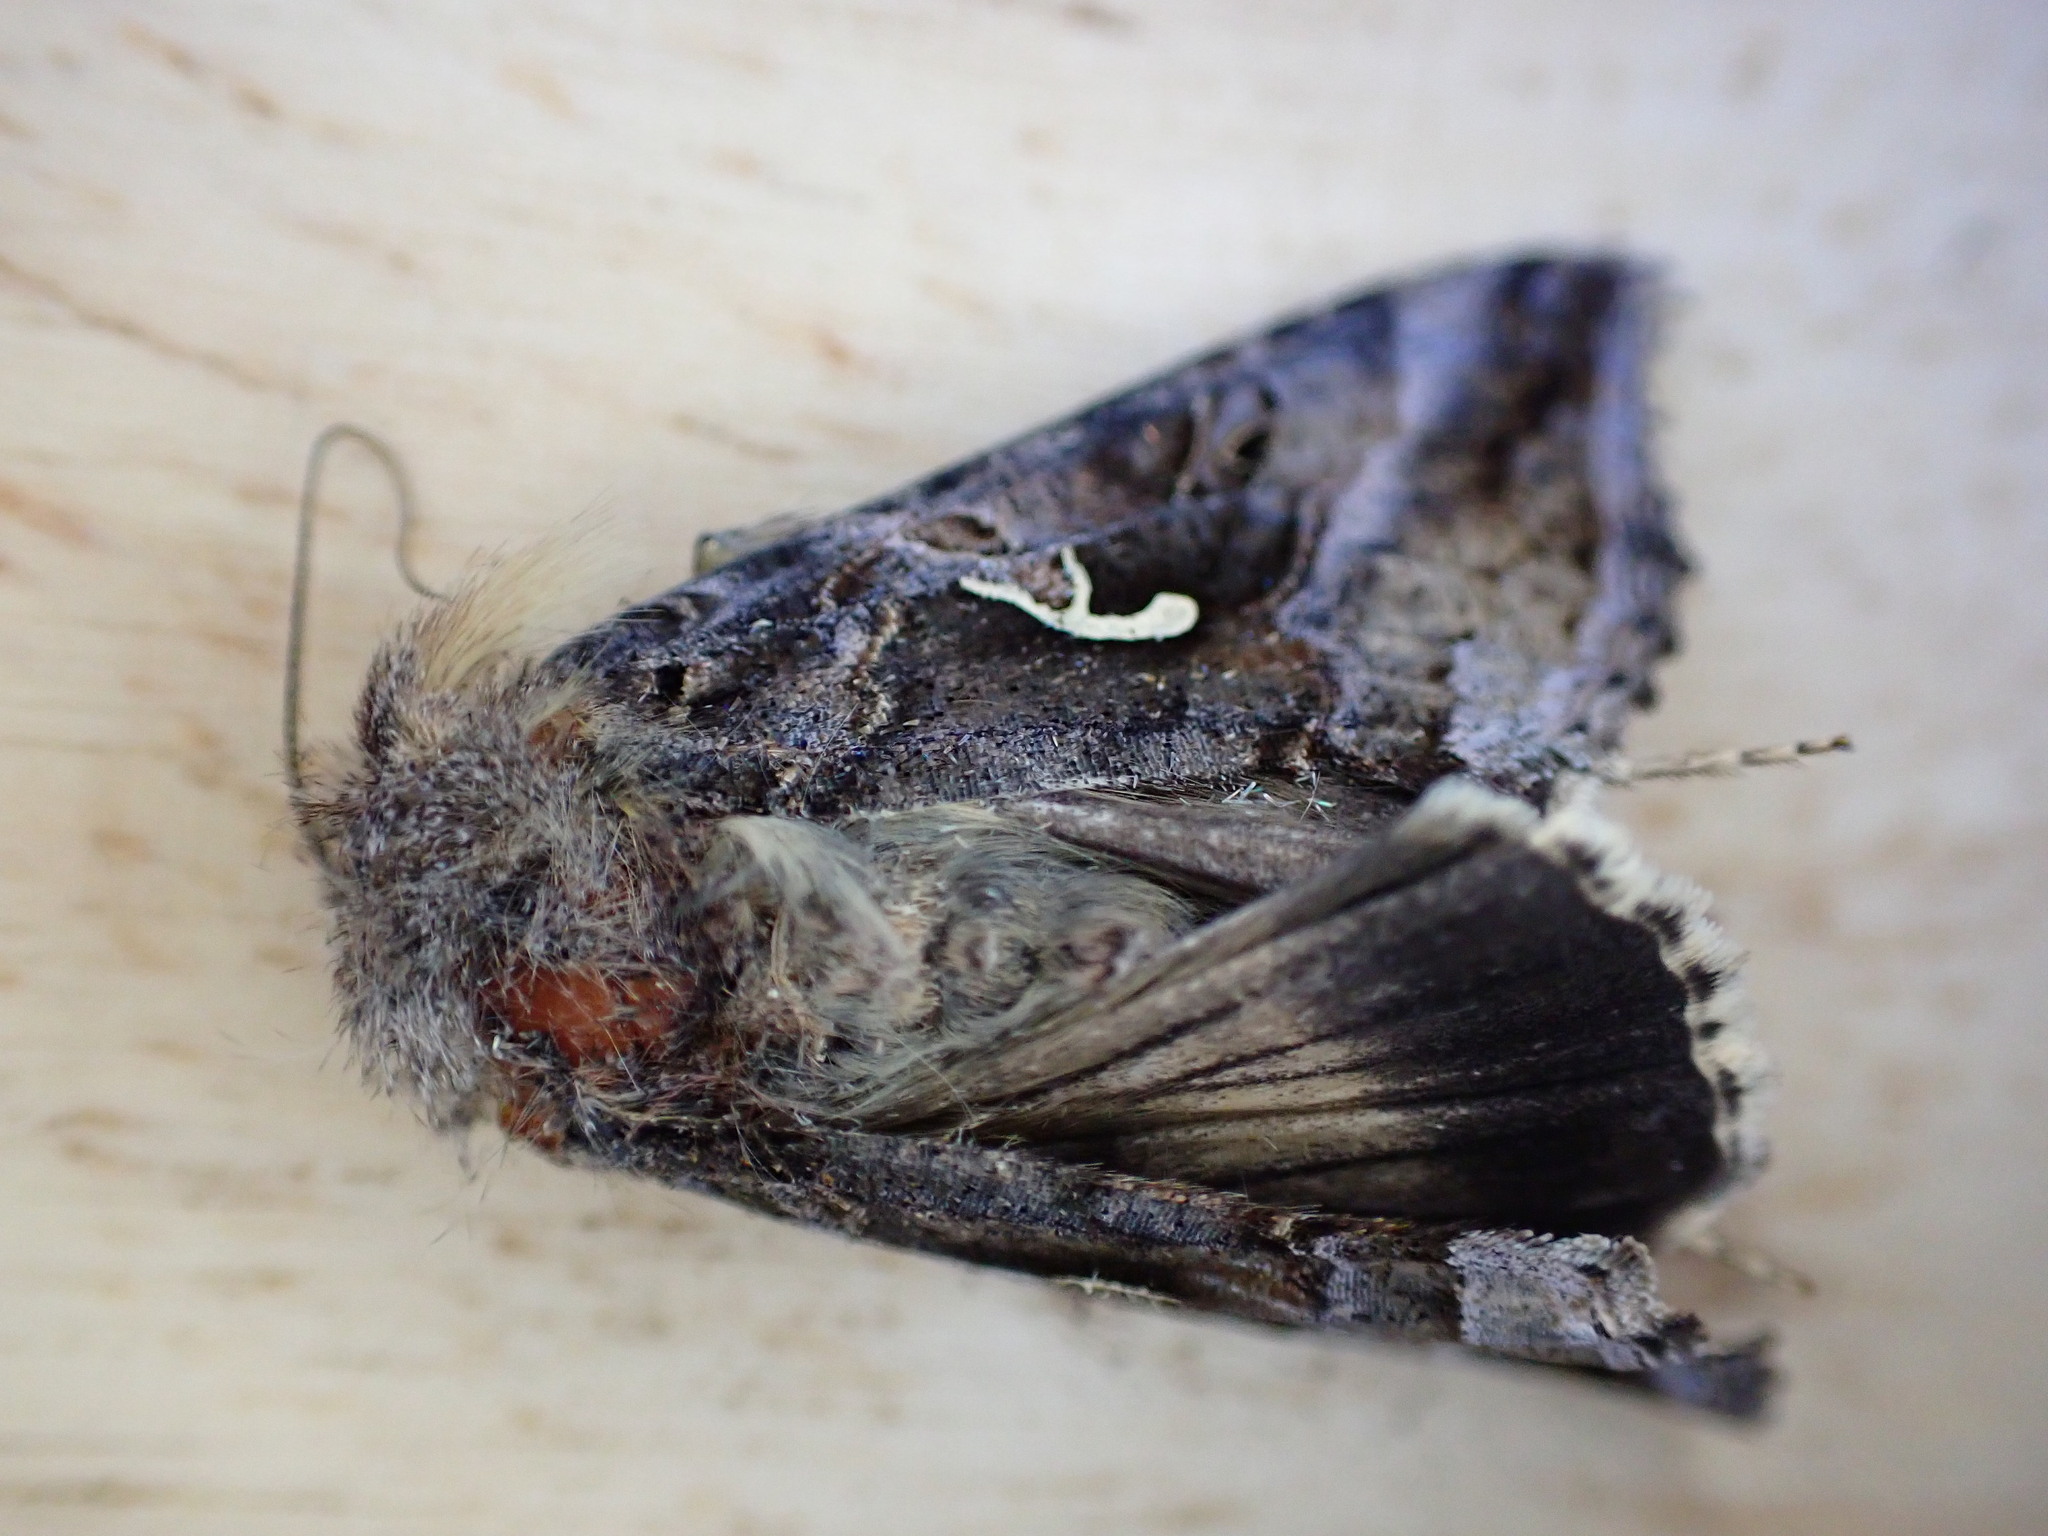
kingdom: Animalia
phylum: Arthropoda
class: Insecta
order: Lepidoptera
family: Noctuidae
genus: Autographa
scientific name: Autographa gamma
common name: Silver y
